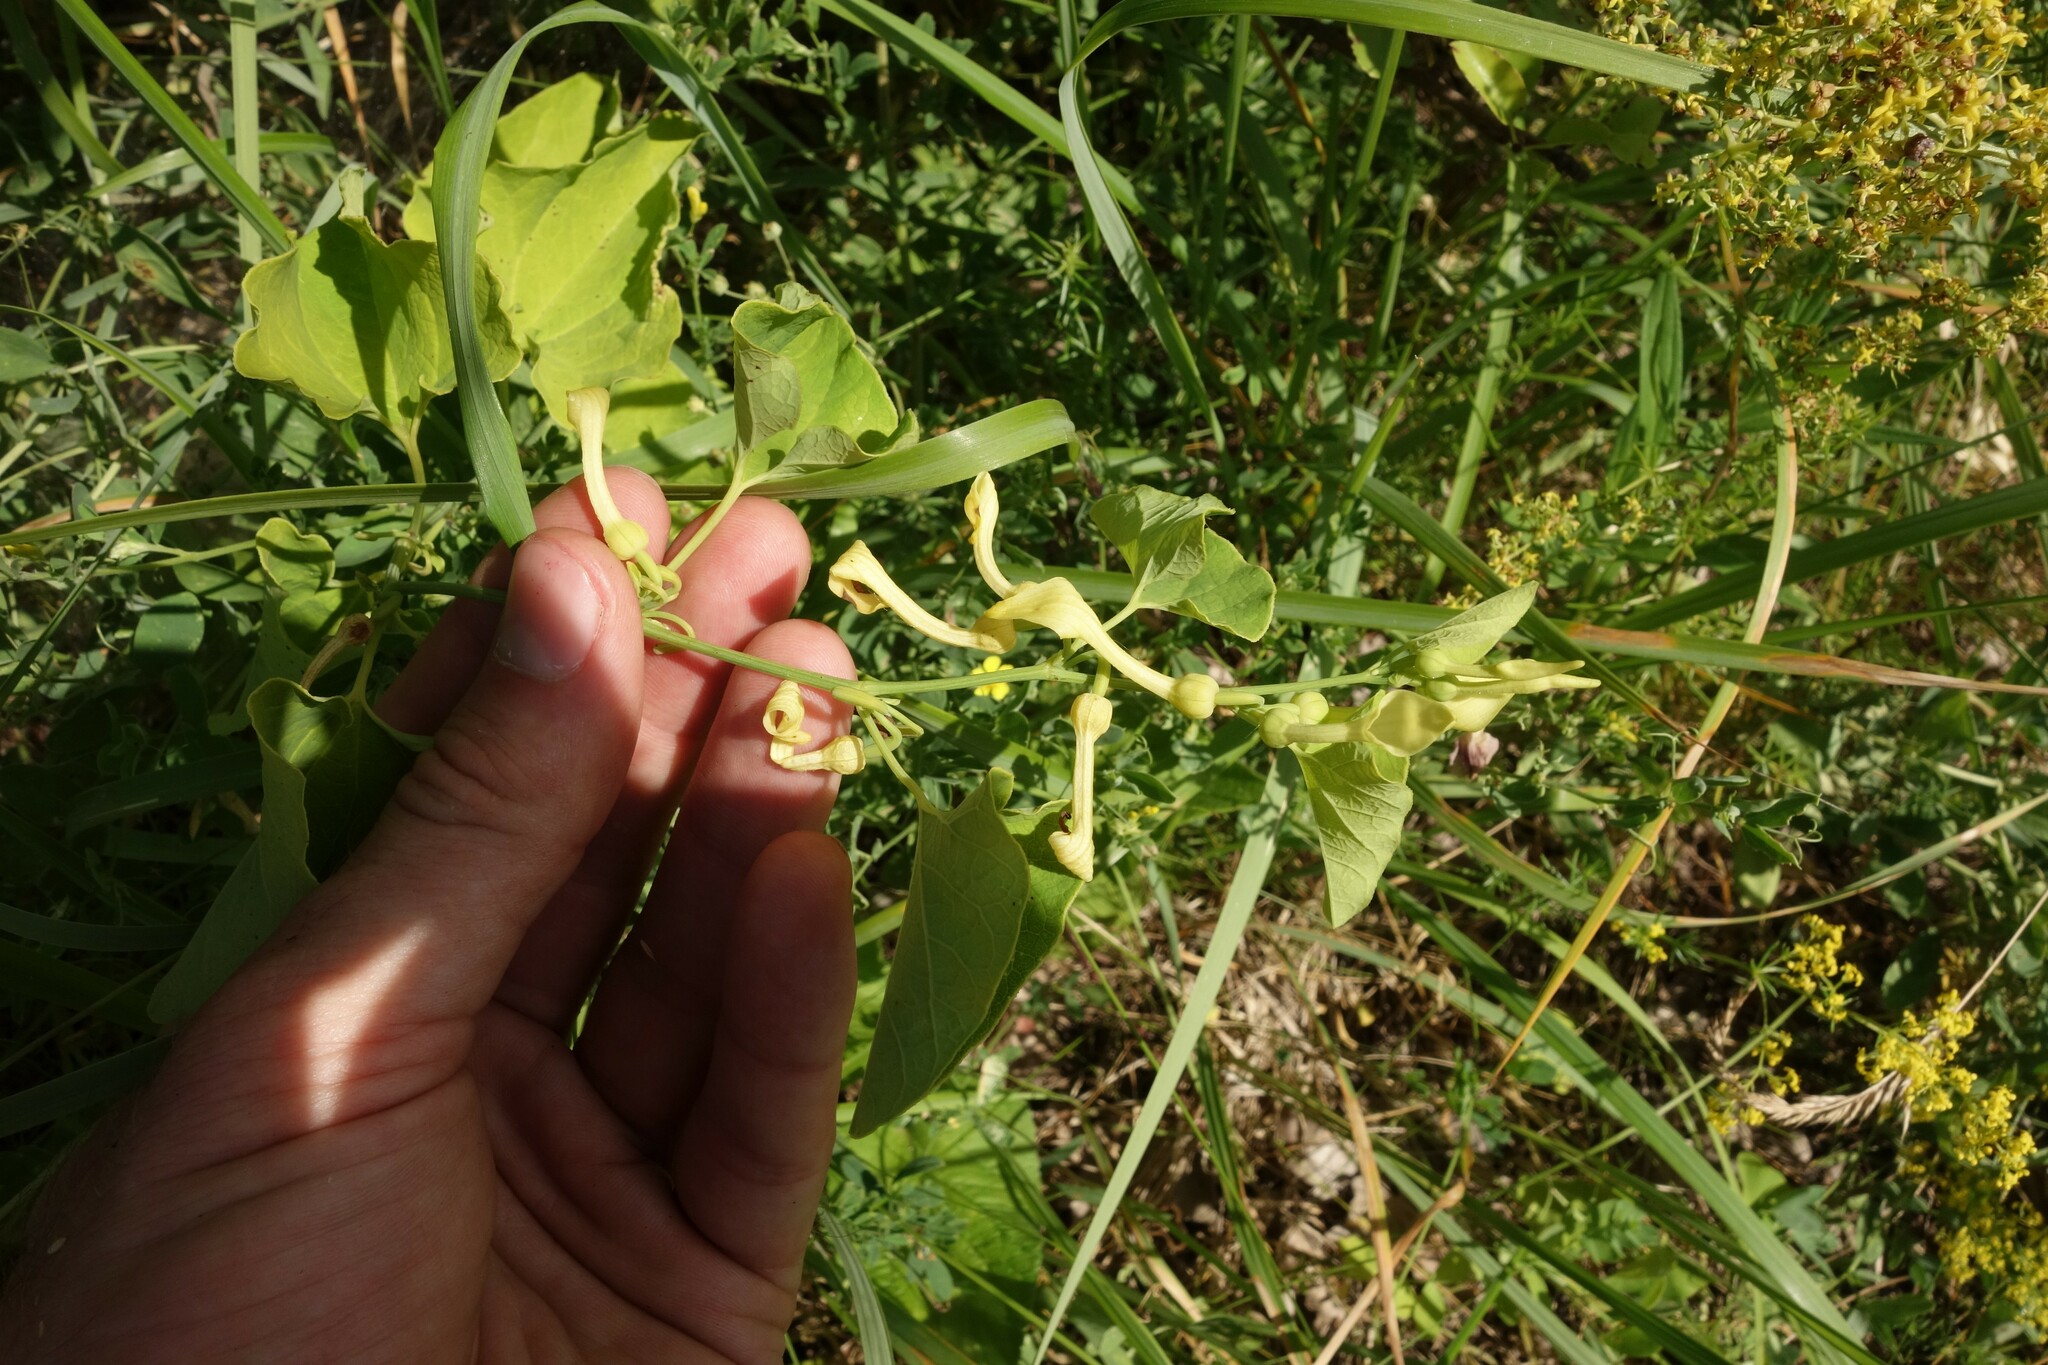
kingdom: Plantae
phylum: Tracheophyta
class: Magnoliopsida
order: Piperales
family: Aristolochiaceae
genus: Aristolochia
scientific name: Aristolochia clematitis
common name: Birthwort
